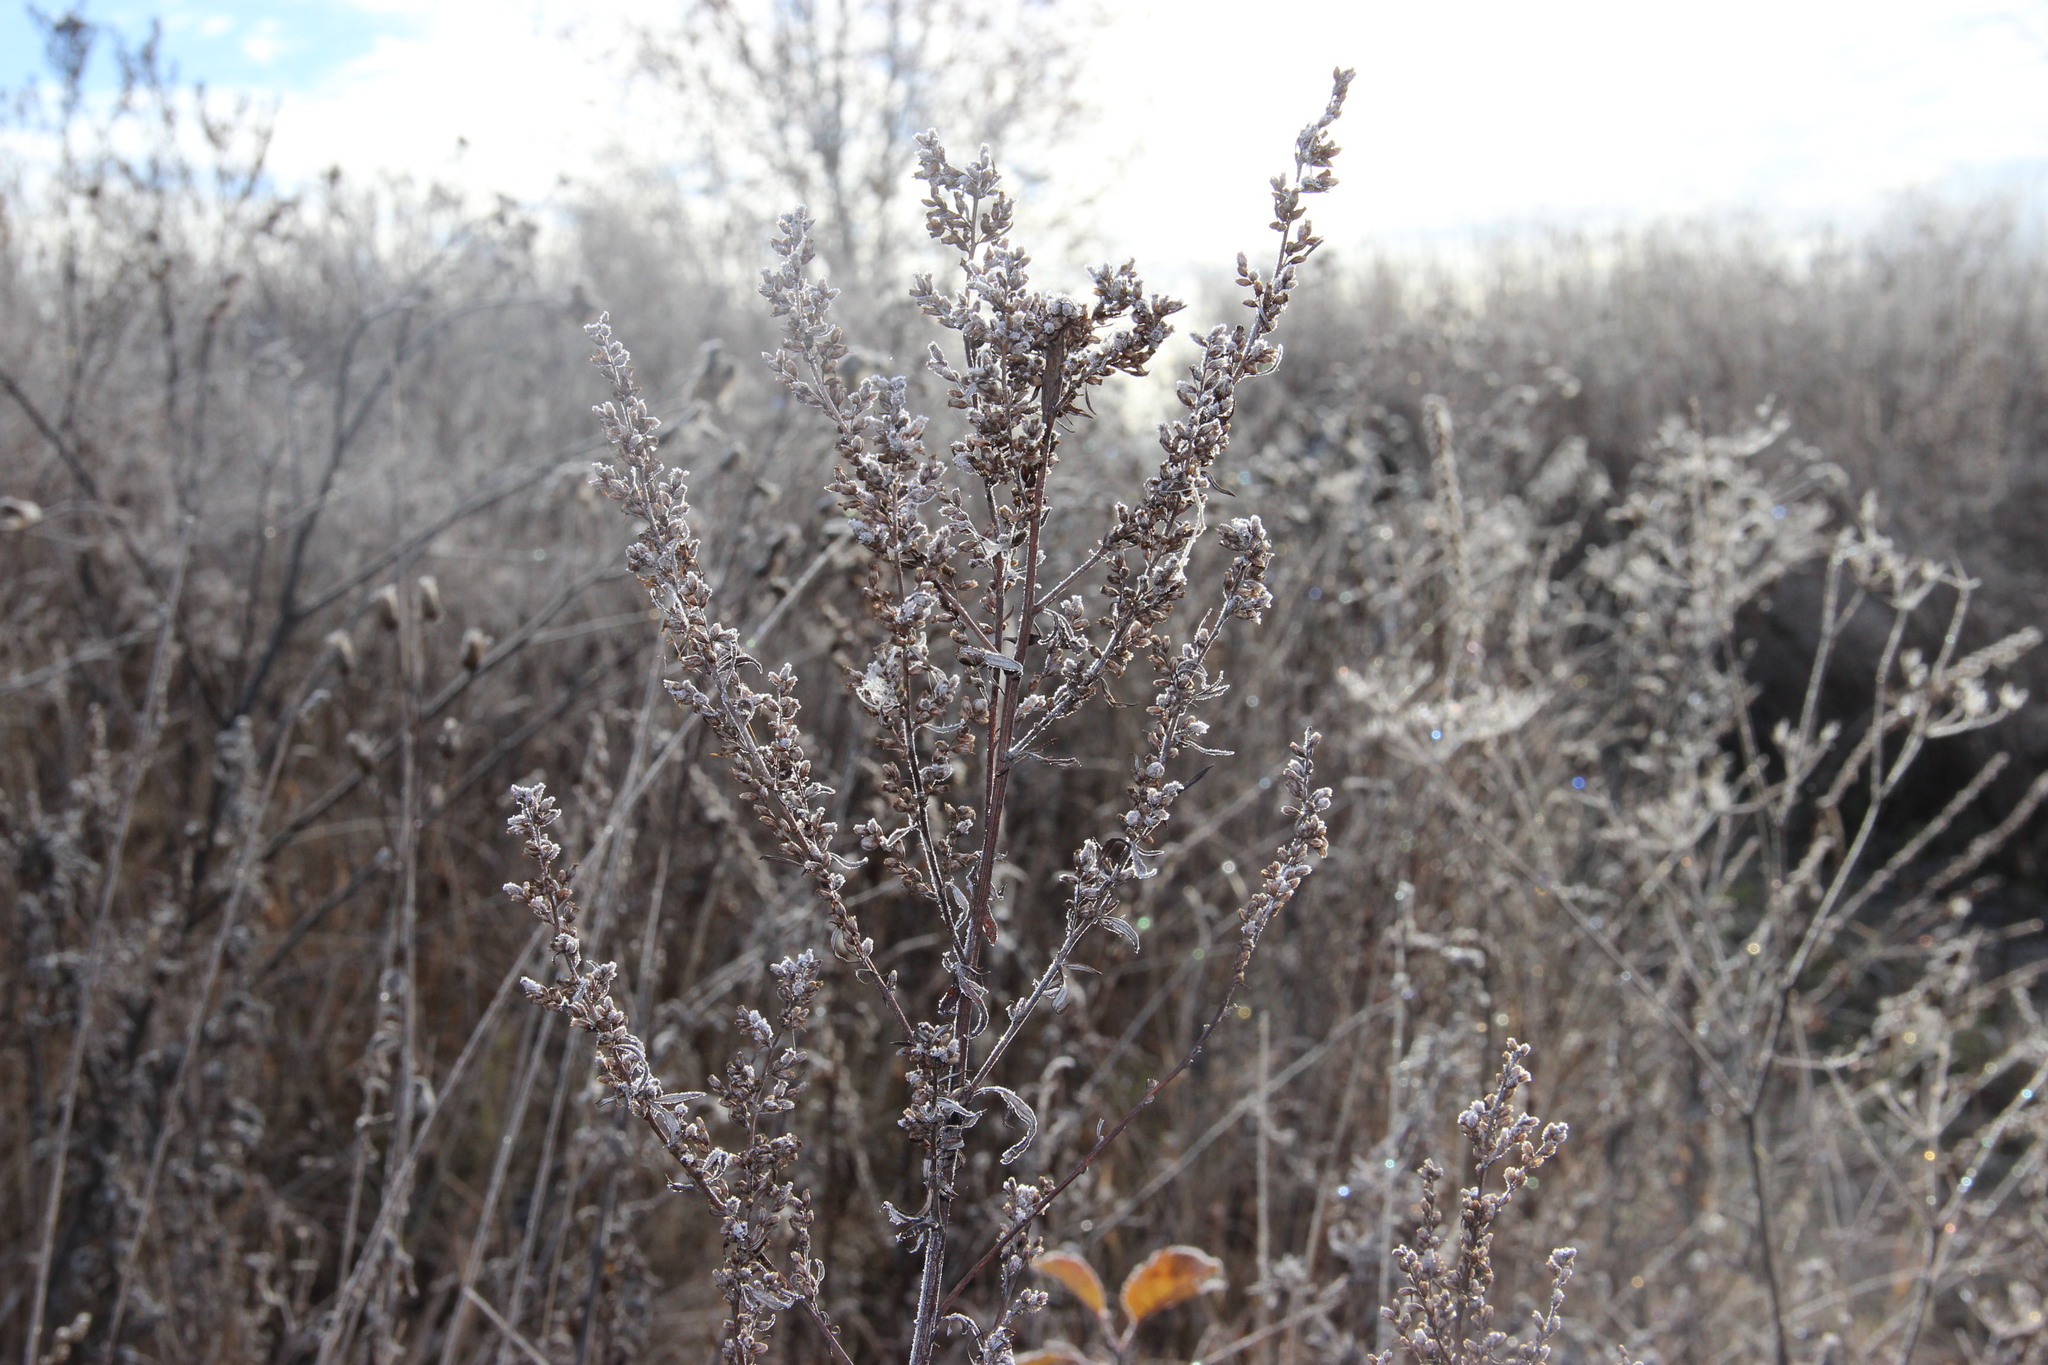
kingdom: Plantae
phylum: Tracheophyta
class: Magnoliopsida
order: Asterales
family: Asteraceae
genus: Artemisia
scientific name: Artemisia vulgaris
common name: Mugwort
